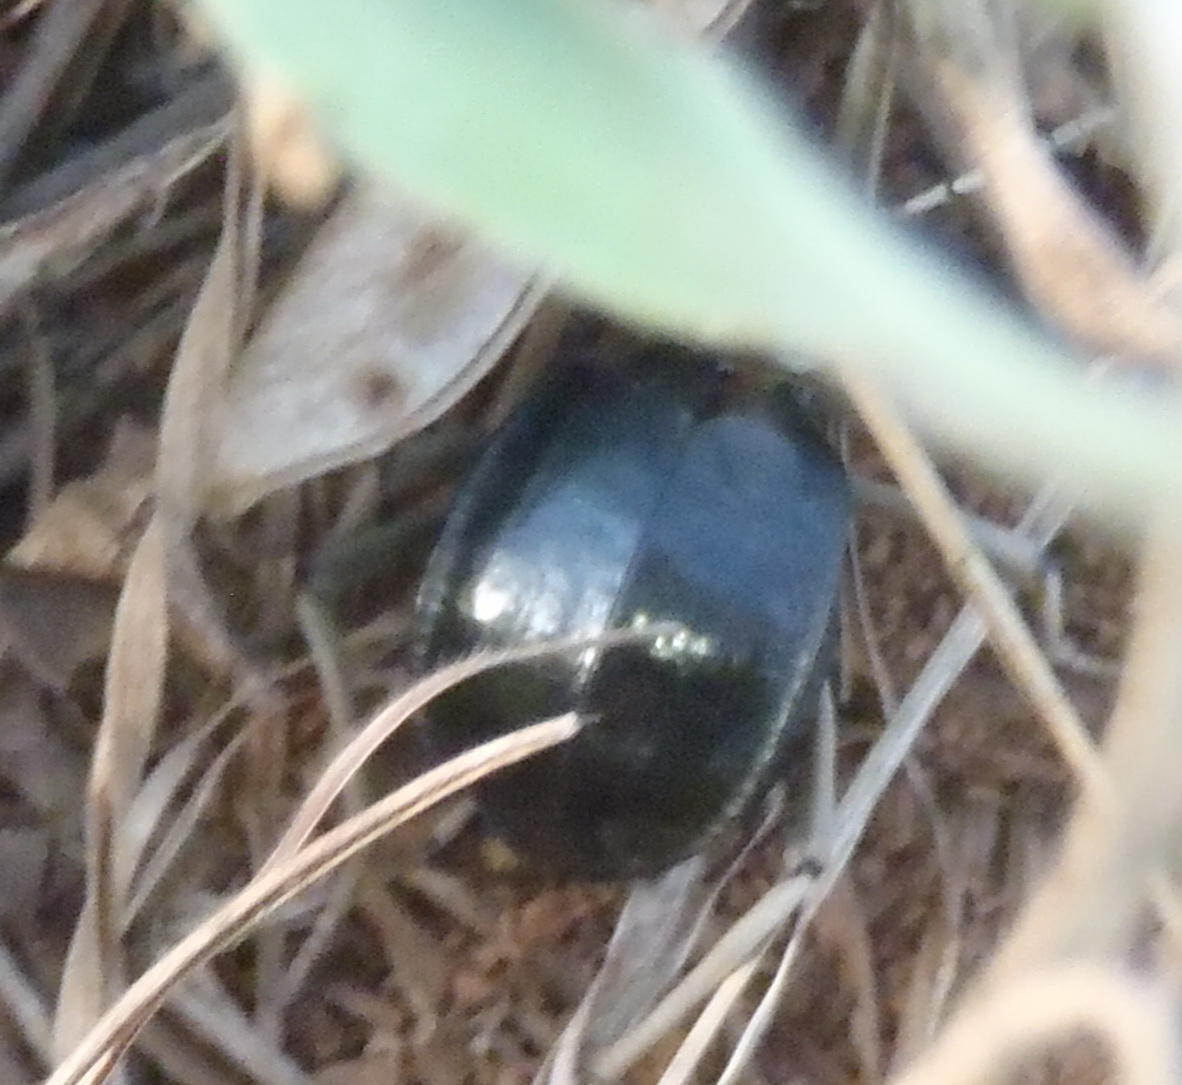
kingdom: Animalia
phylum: Arthropoda
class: Insecta
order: Coleoptera
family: Tenebrionidae
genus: Dichtha
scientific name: Dichtha cubica
